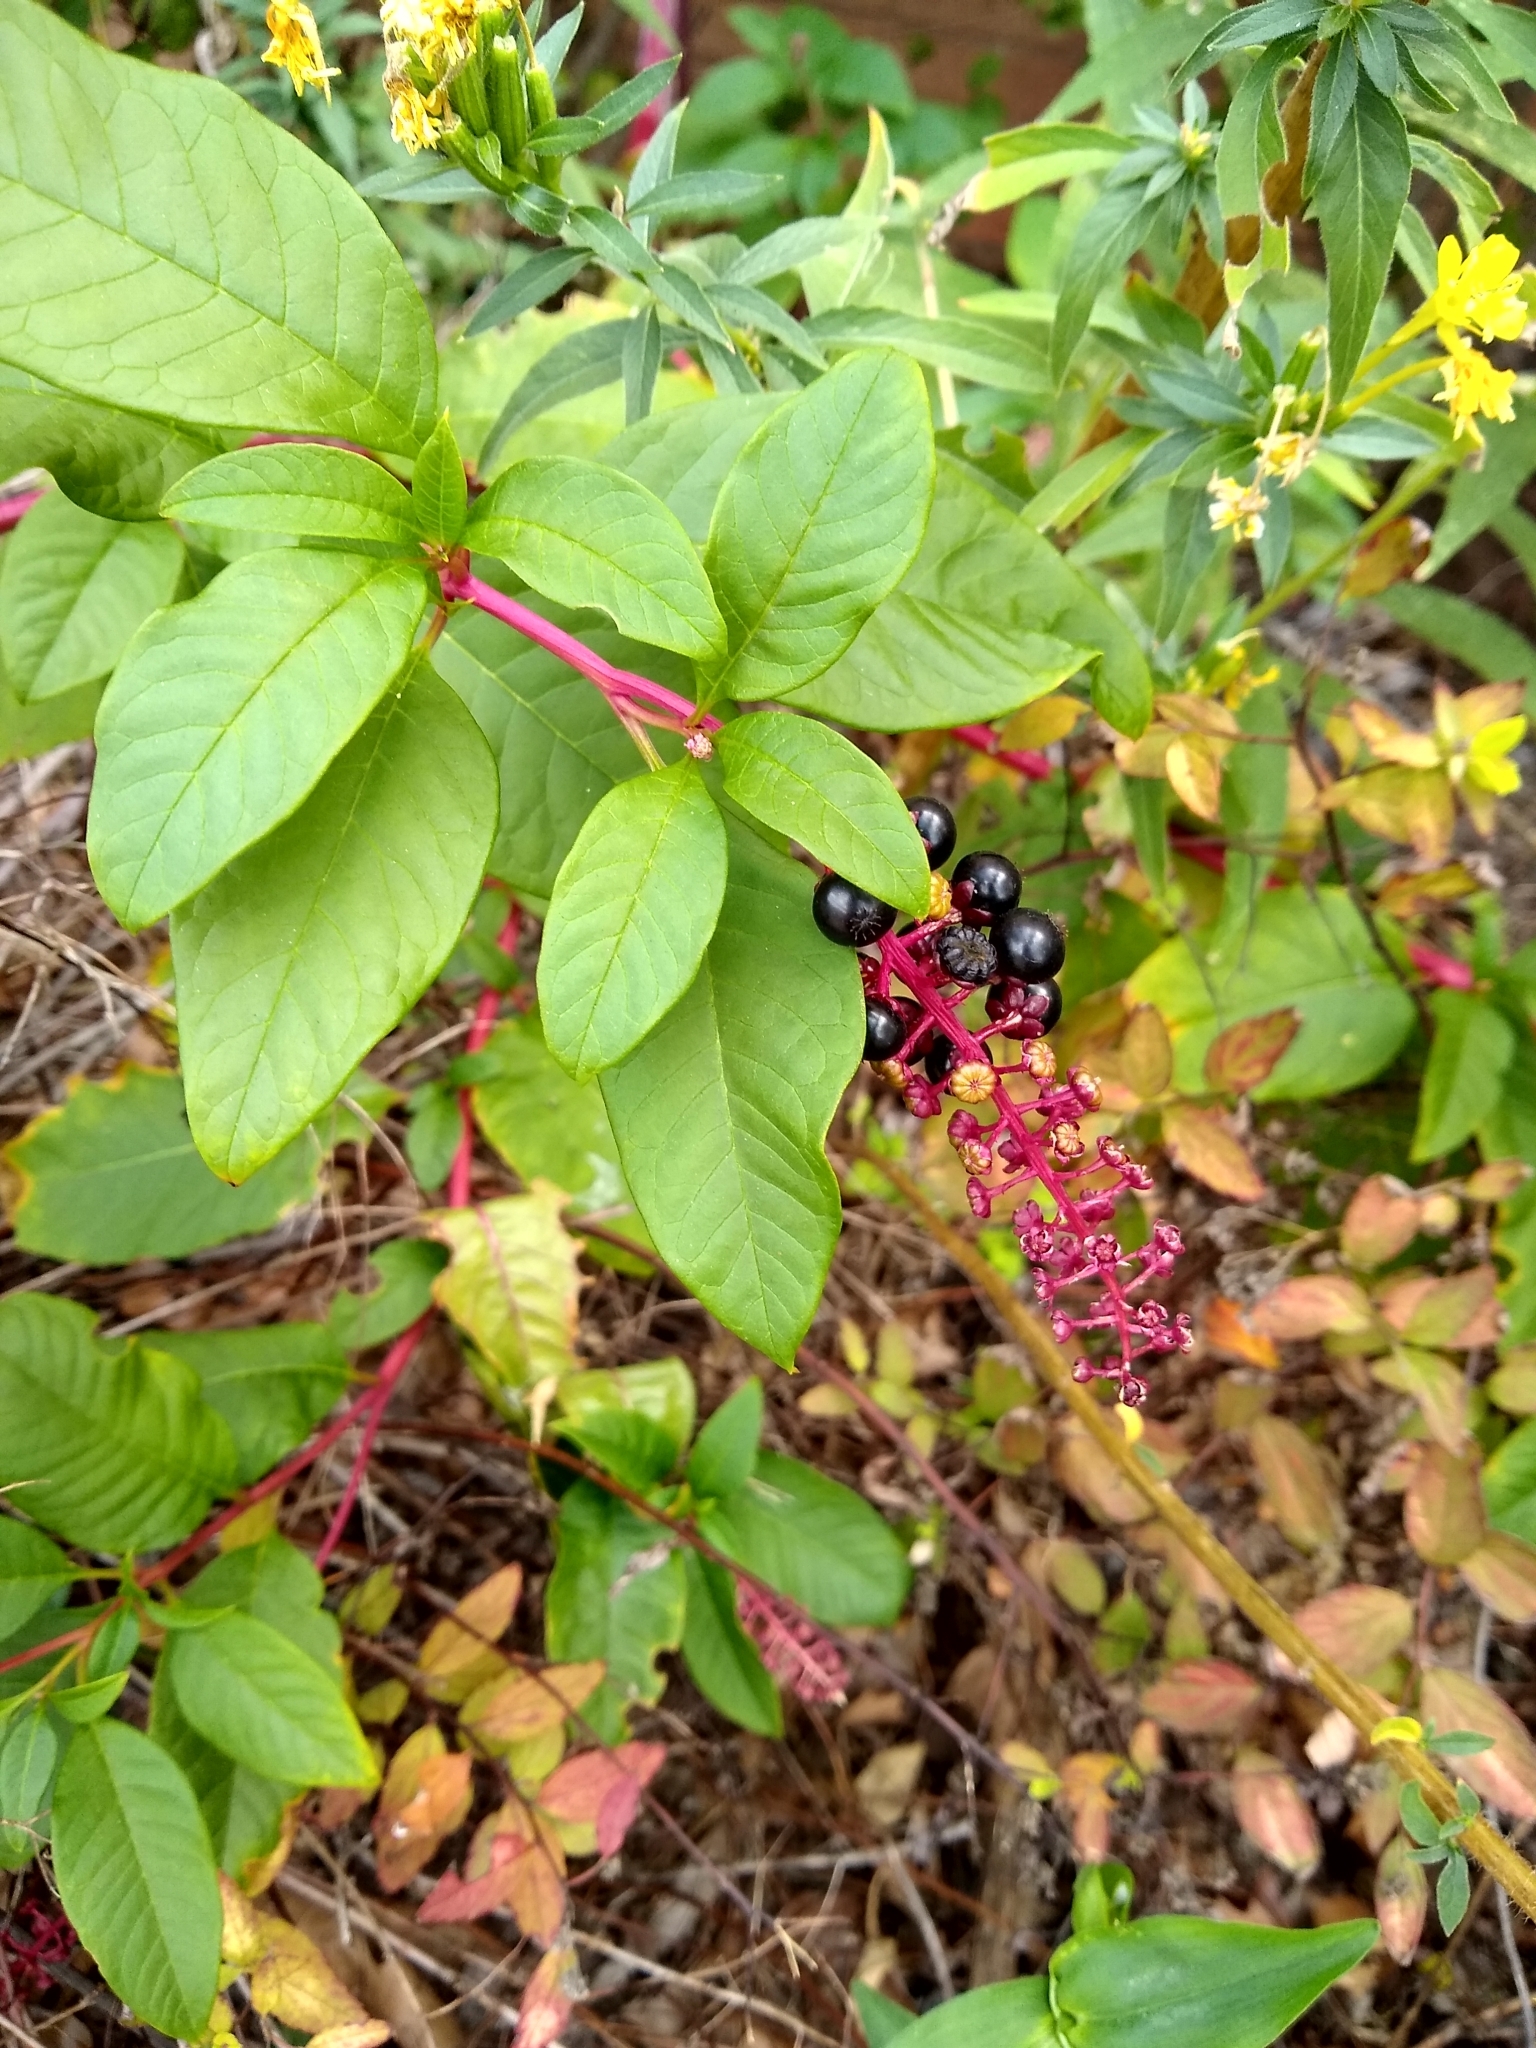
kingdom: Plantae
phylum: Tracheophyta
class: Magnoliopsida
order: Caryophyllales
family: Phytolaccaceae
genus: Phytolacca
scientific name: Phytolacca americana
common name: American pokeweed
